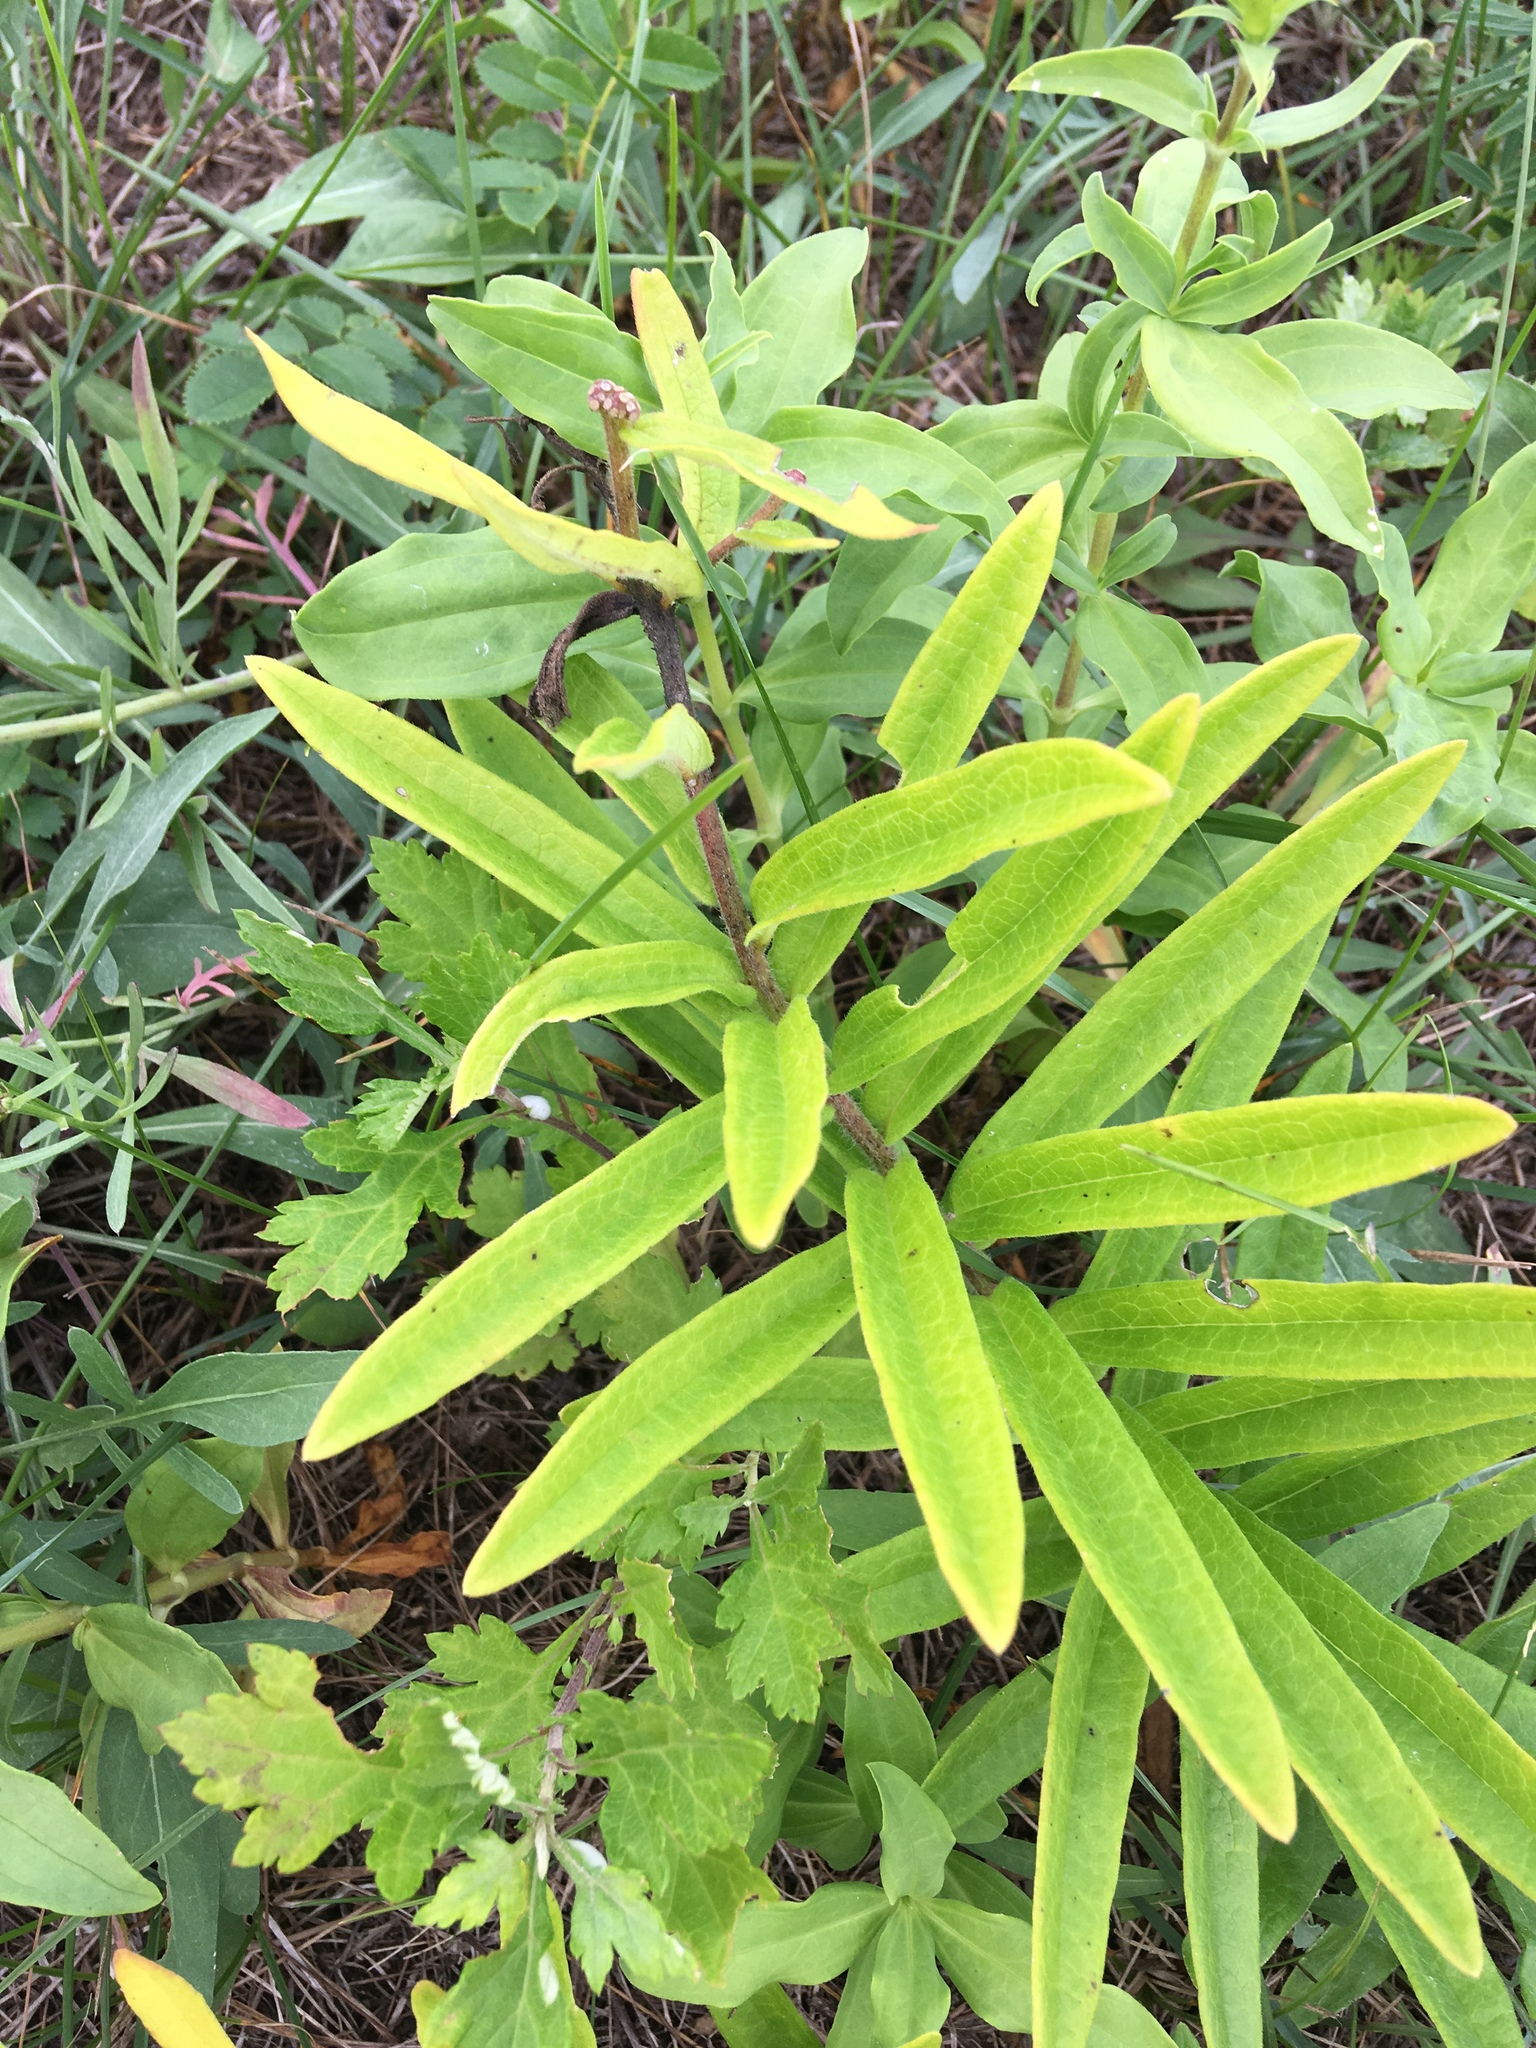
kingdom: Plantae
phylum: Tracheophyta
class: Magnoliopsida
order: Gentianales
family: Apocynaceae
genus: Asclepias
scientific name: Asclepias tuberosa
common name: Butterfly milkweed
